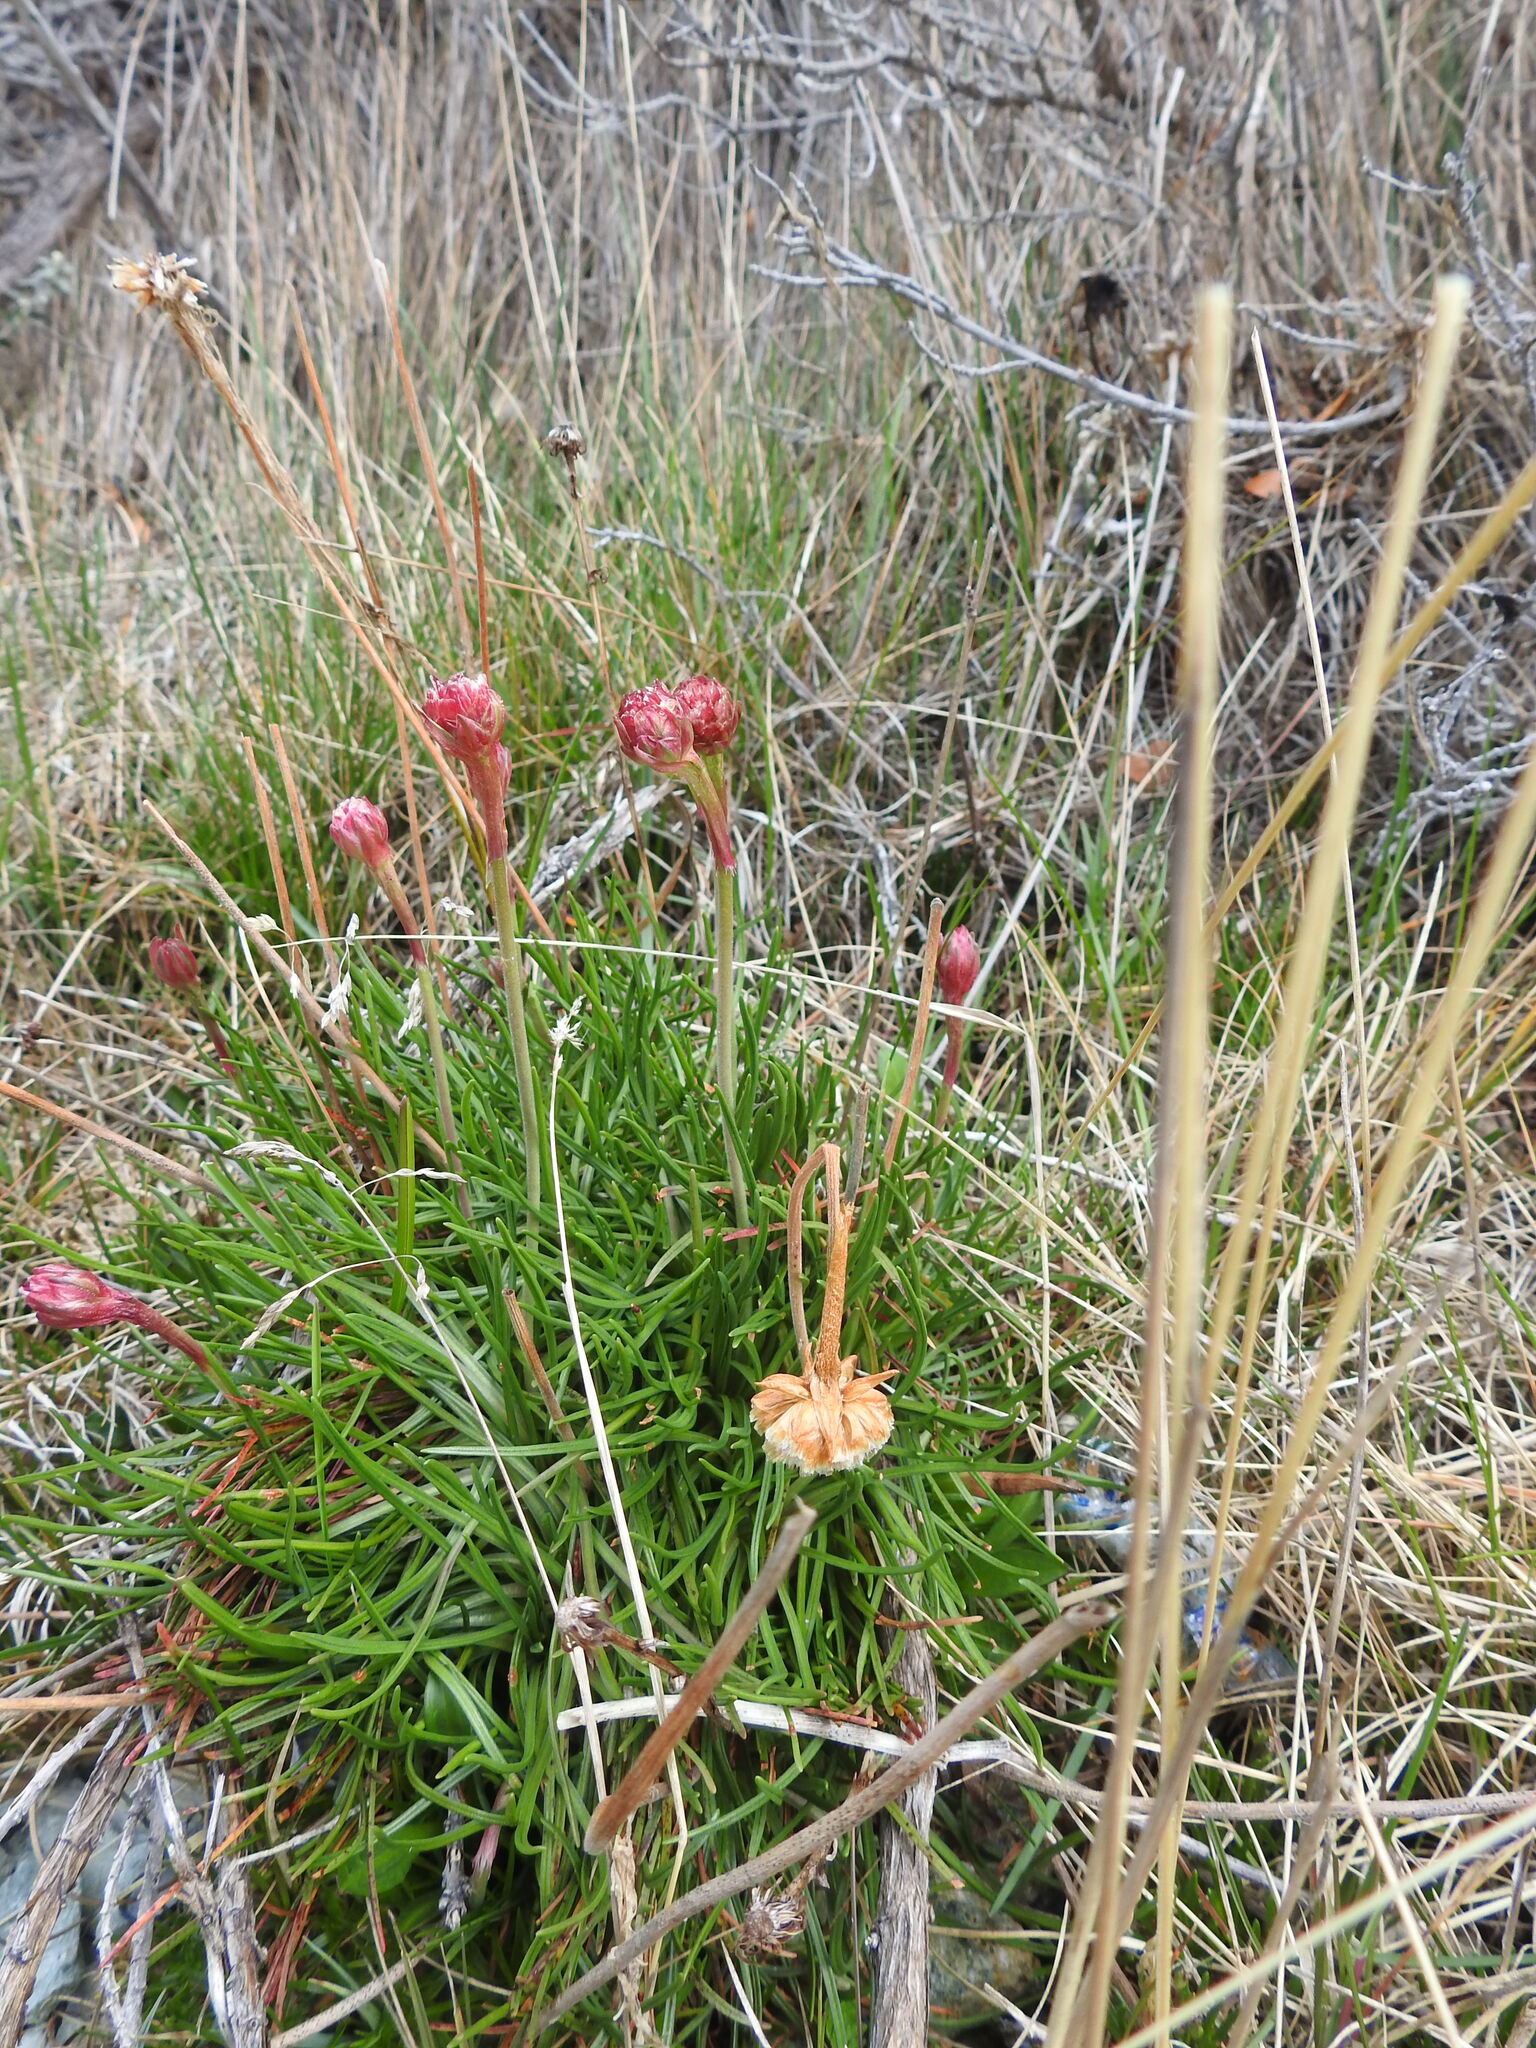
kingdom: Plantae
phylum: Tracheophyta
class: Magnoliopsida
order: Caryophyllales
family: Plumbaginaceae
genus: Armeria
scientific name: Armeria curvifolia
